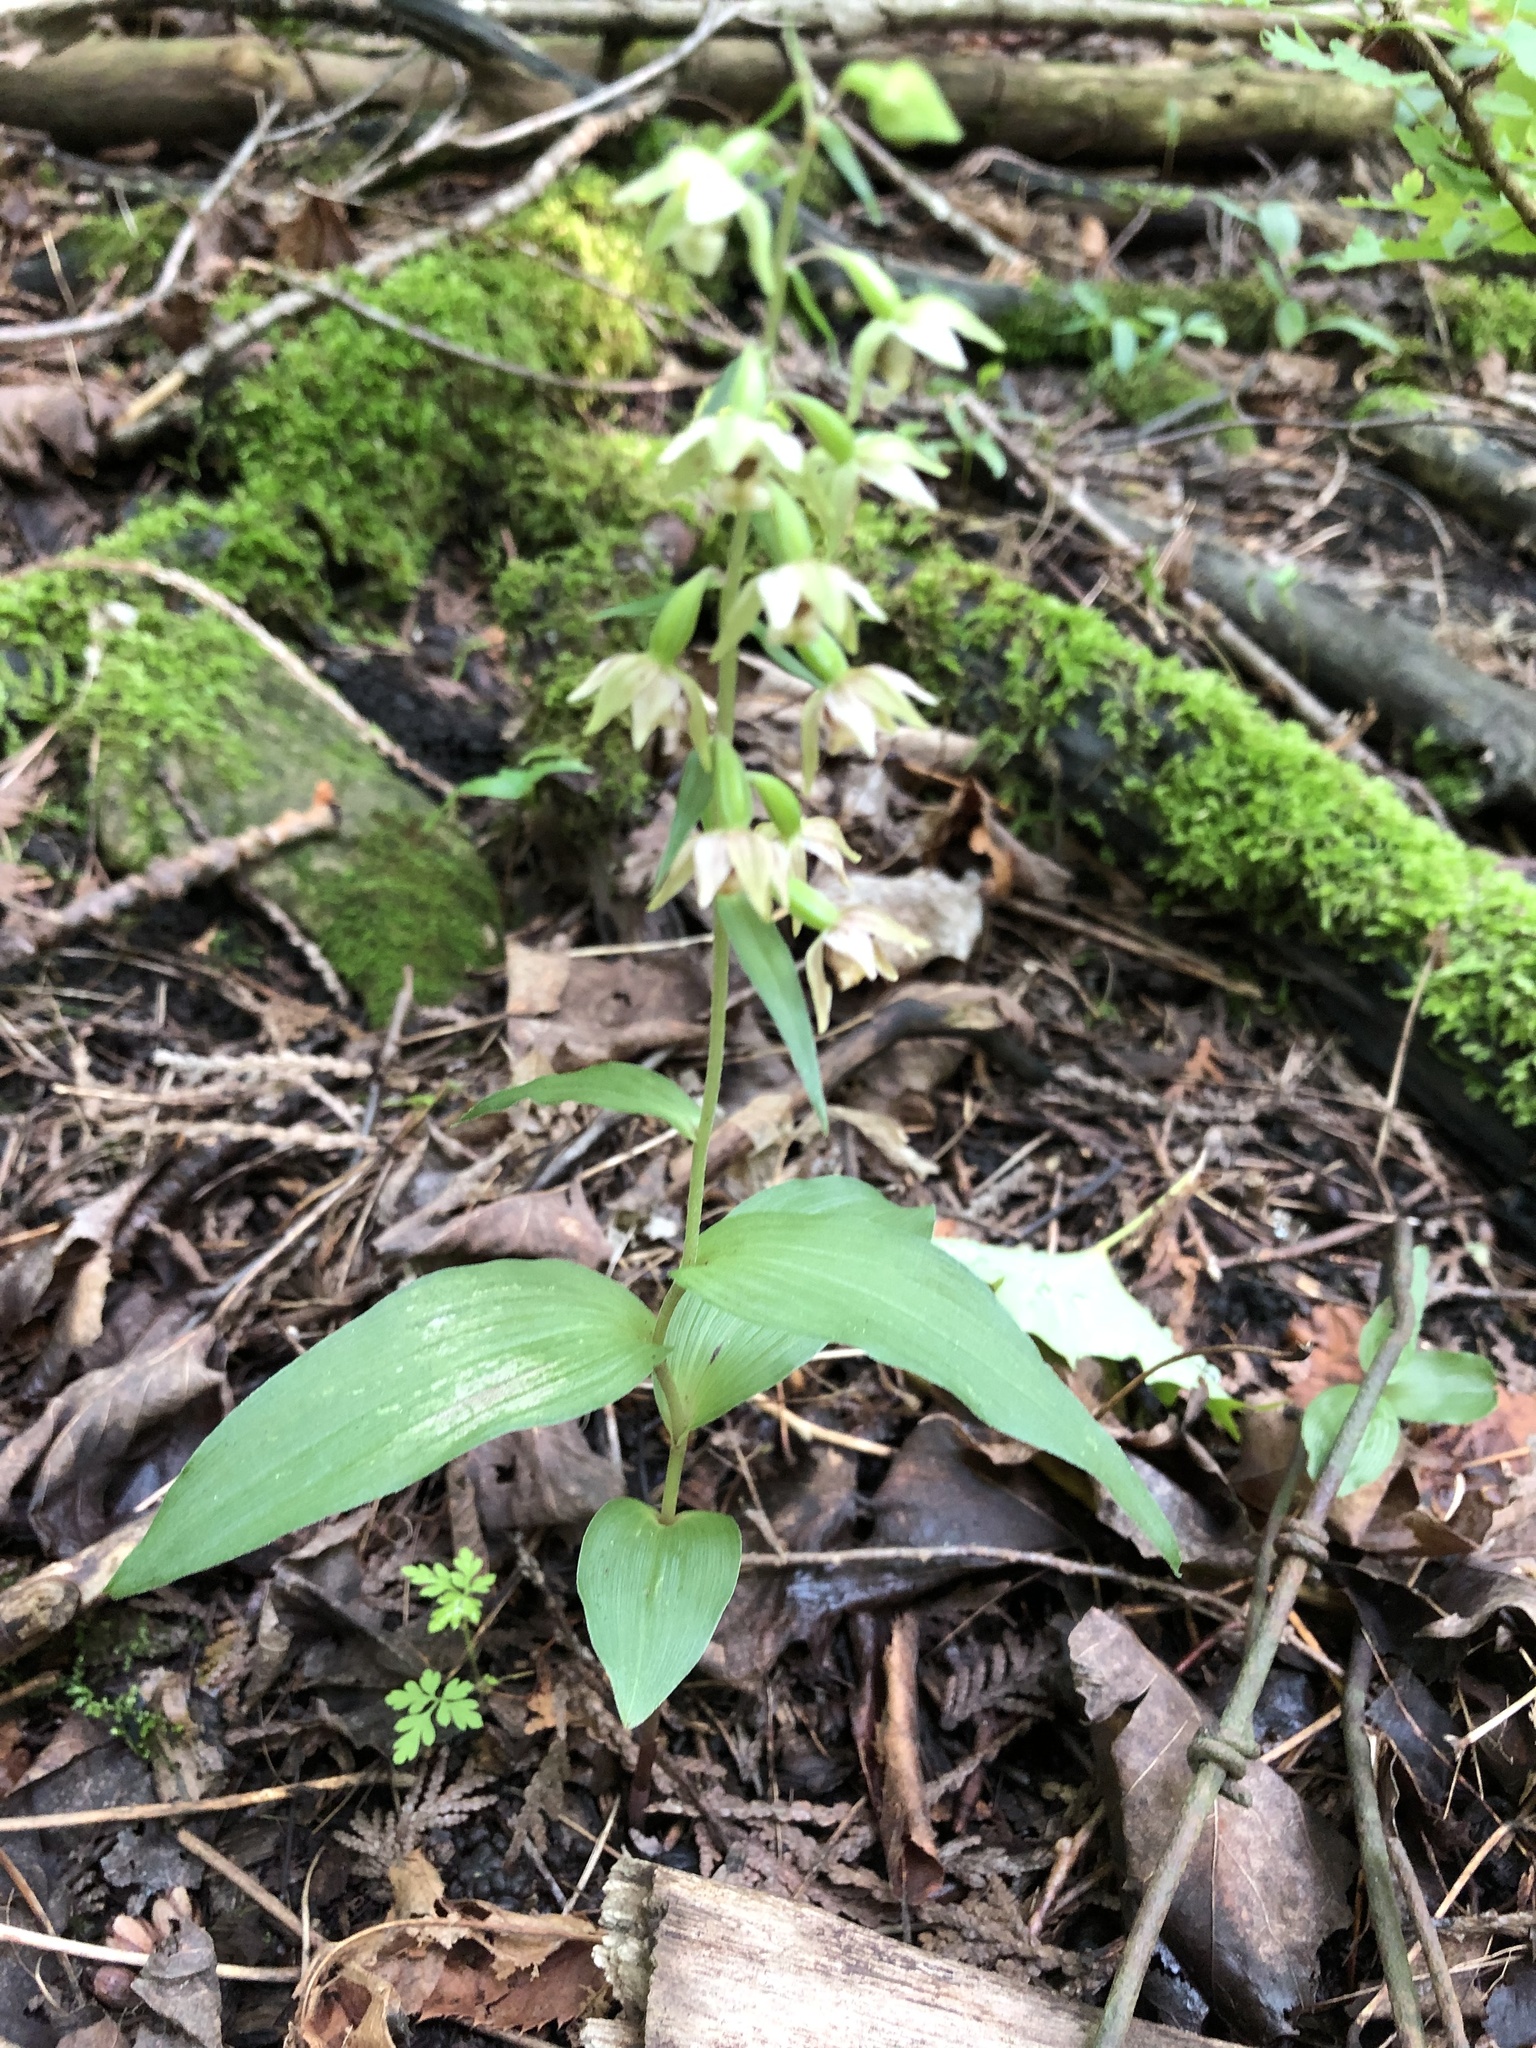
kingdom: Plantae
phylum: Tracheophyta
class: Liliopsida
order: Asparagales
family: Orchidaceae
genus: Epipactis
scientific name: Epipactis helleborine
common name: Broad-leaved helleborine
